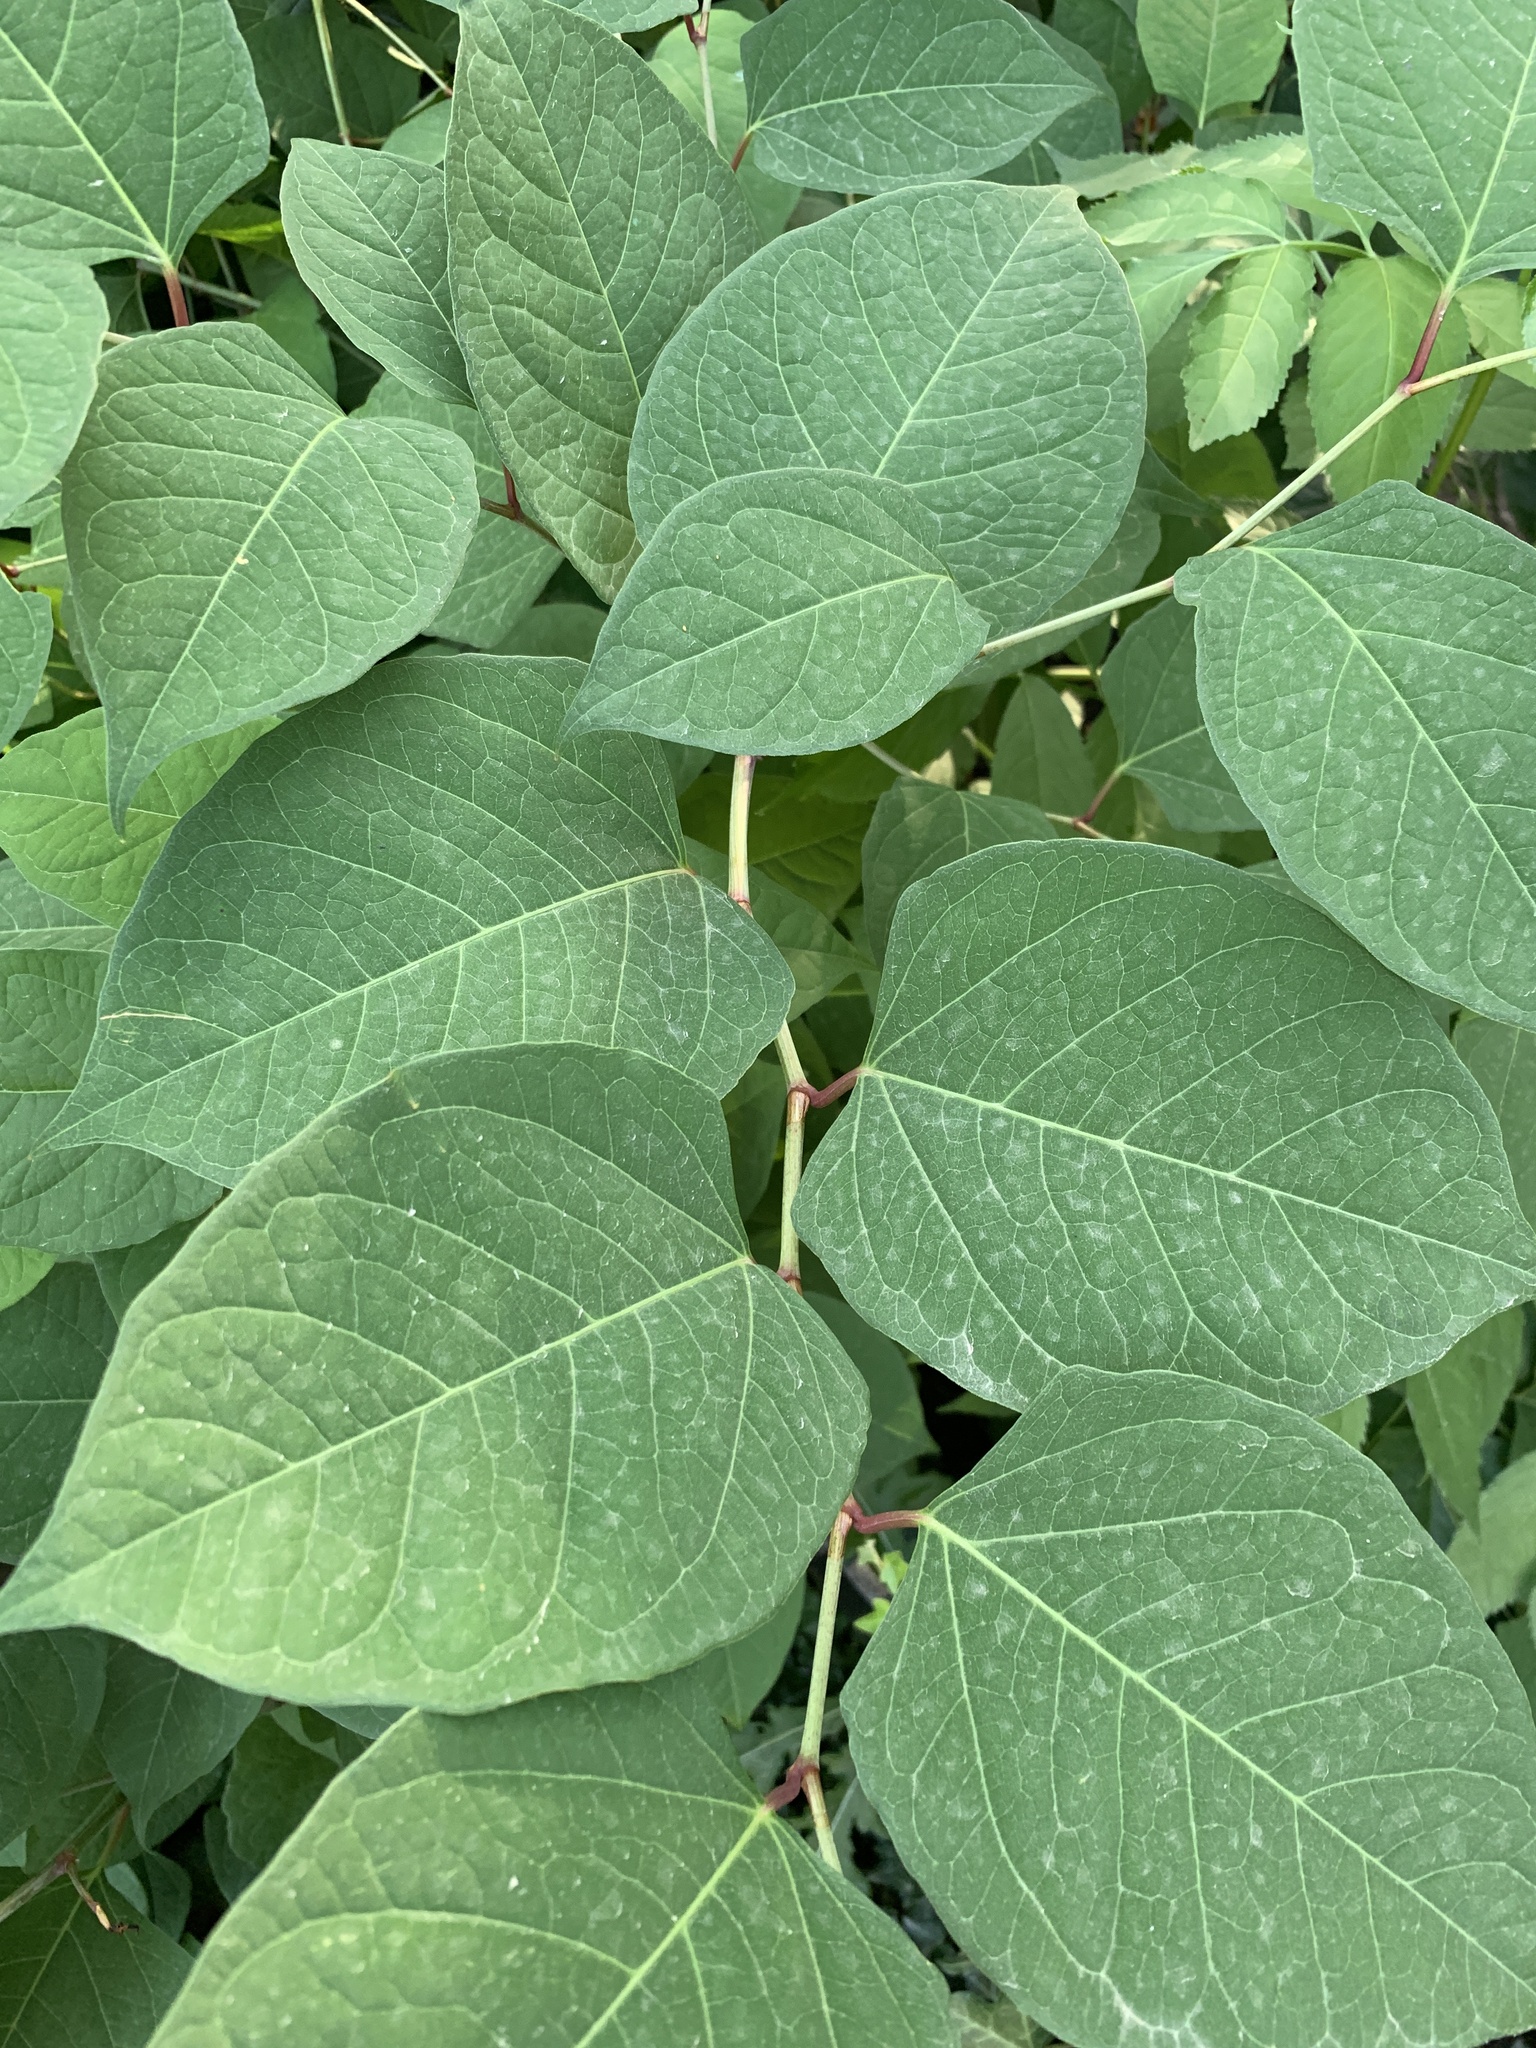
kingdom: Plantae
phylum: Tracheophyta
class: Magnoliopsida
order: Caryophyllales
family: Polygonaceae
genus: Reynoutria
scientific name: Reynoutria japonica
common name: Japanese knotweed
